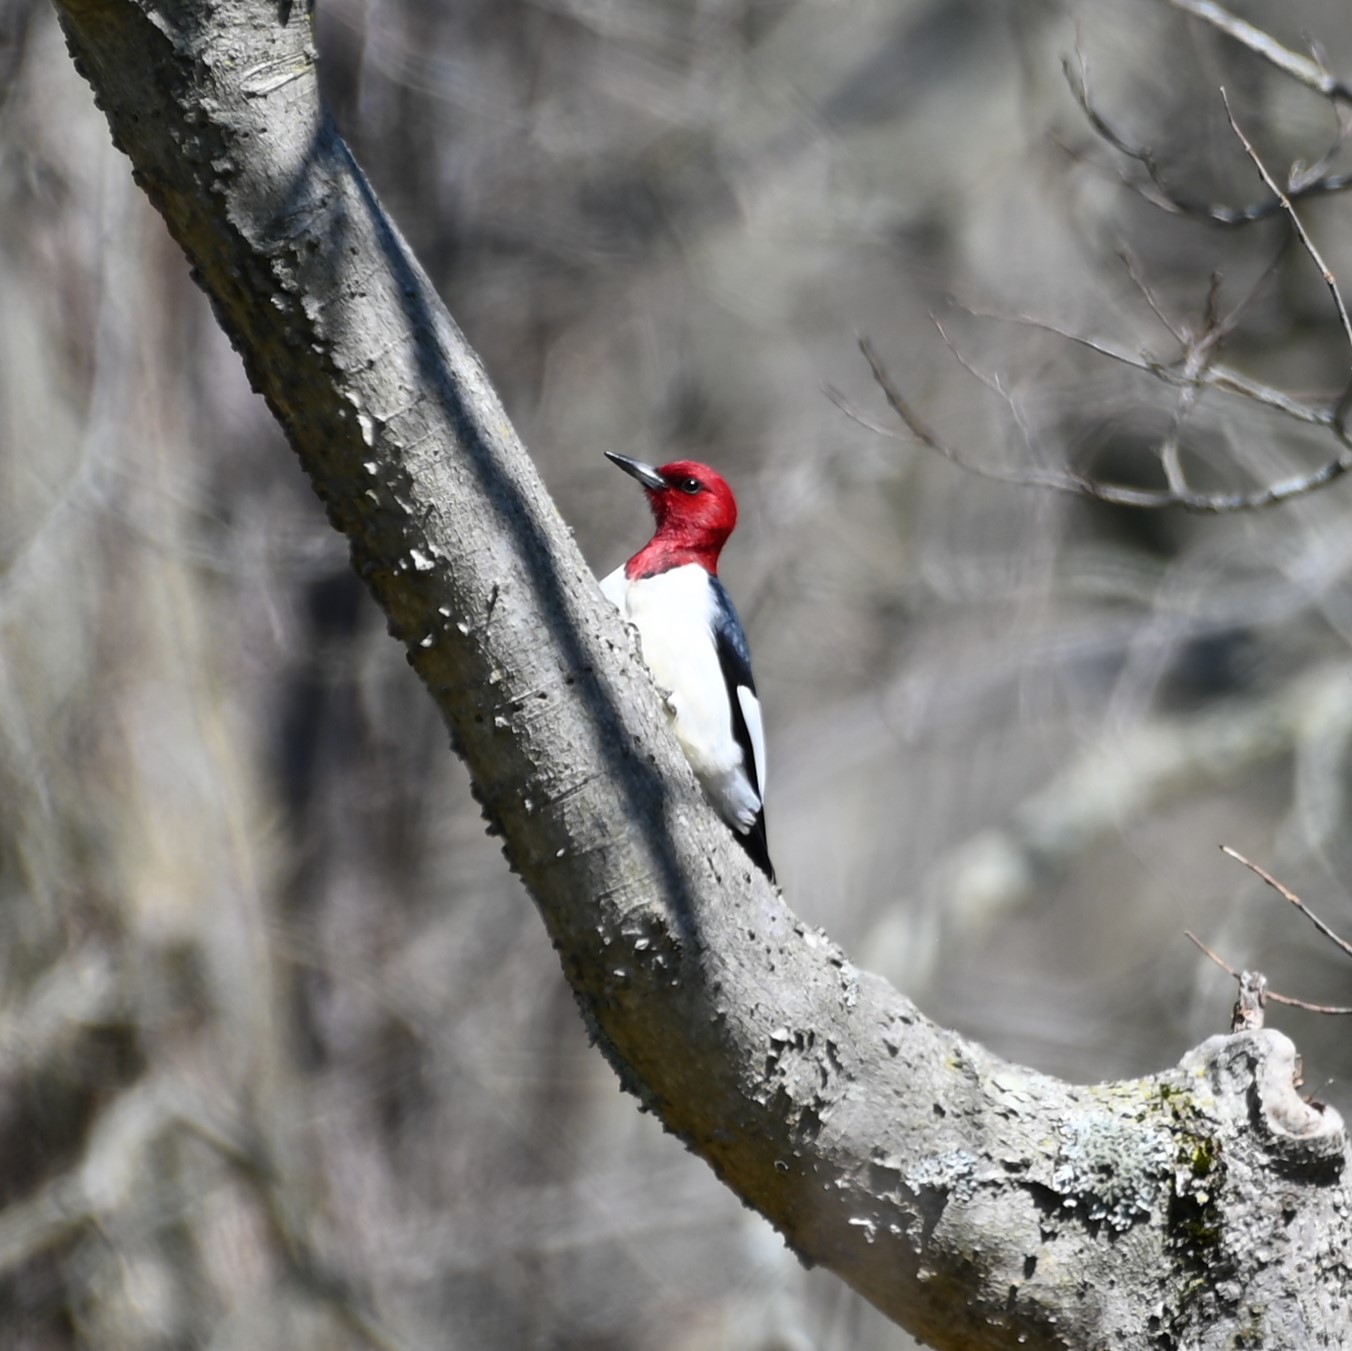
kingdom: Animalia
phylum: Chordata
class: Aves
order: Piciformes
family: Picidae
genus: Melanerpes
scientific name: Melanerpes erythrocephalus
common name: Red-headed woodpecker
